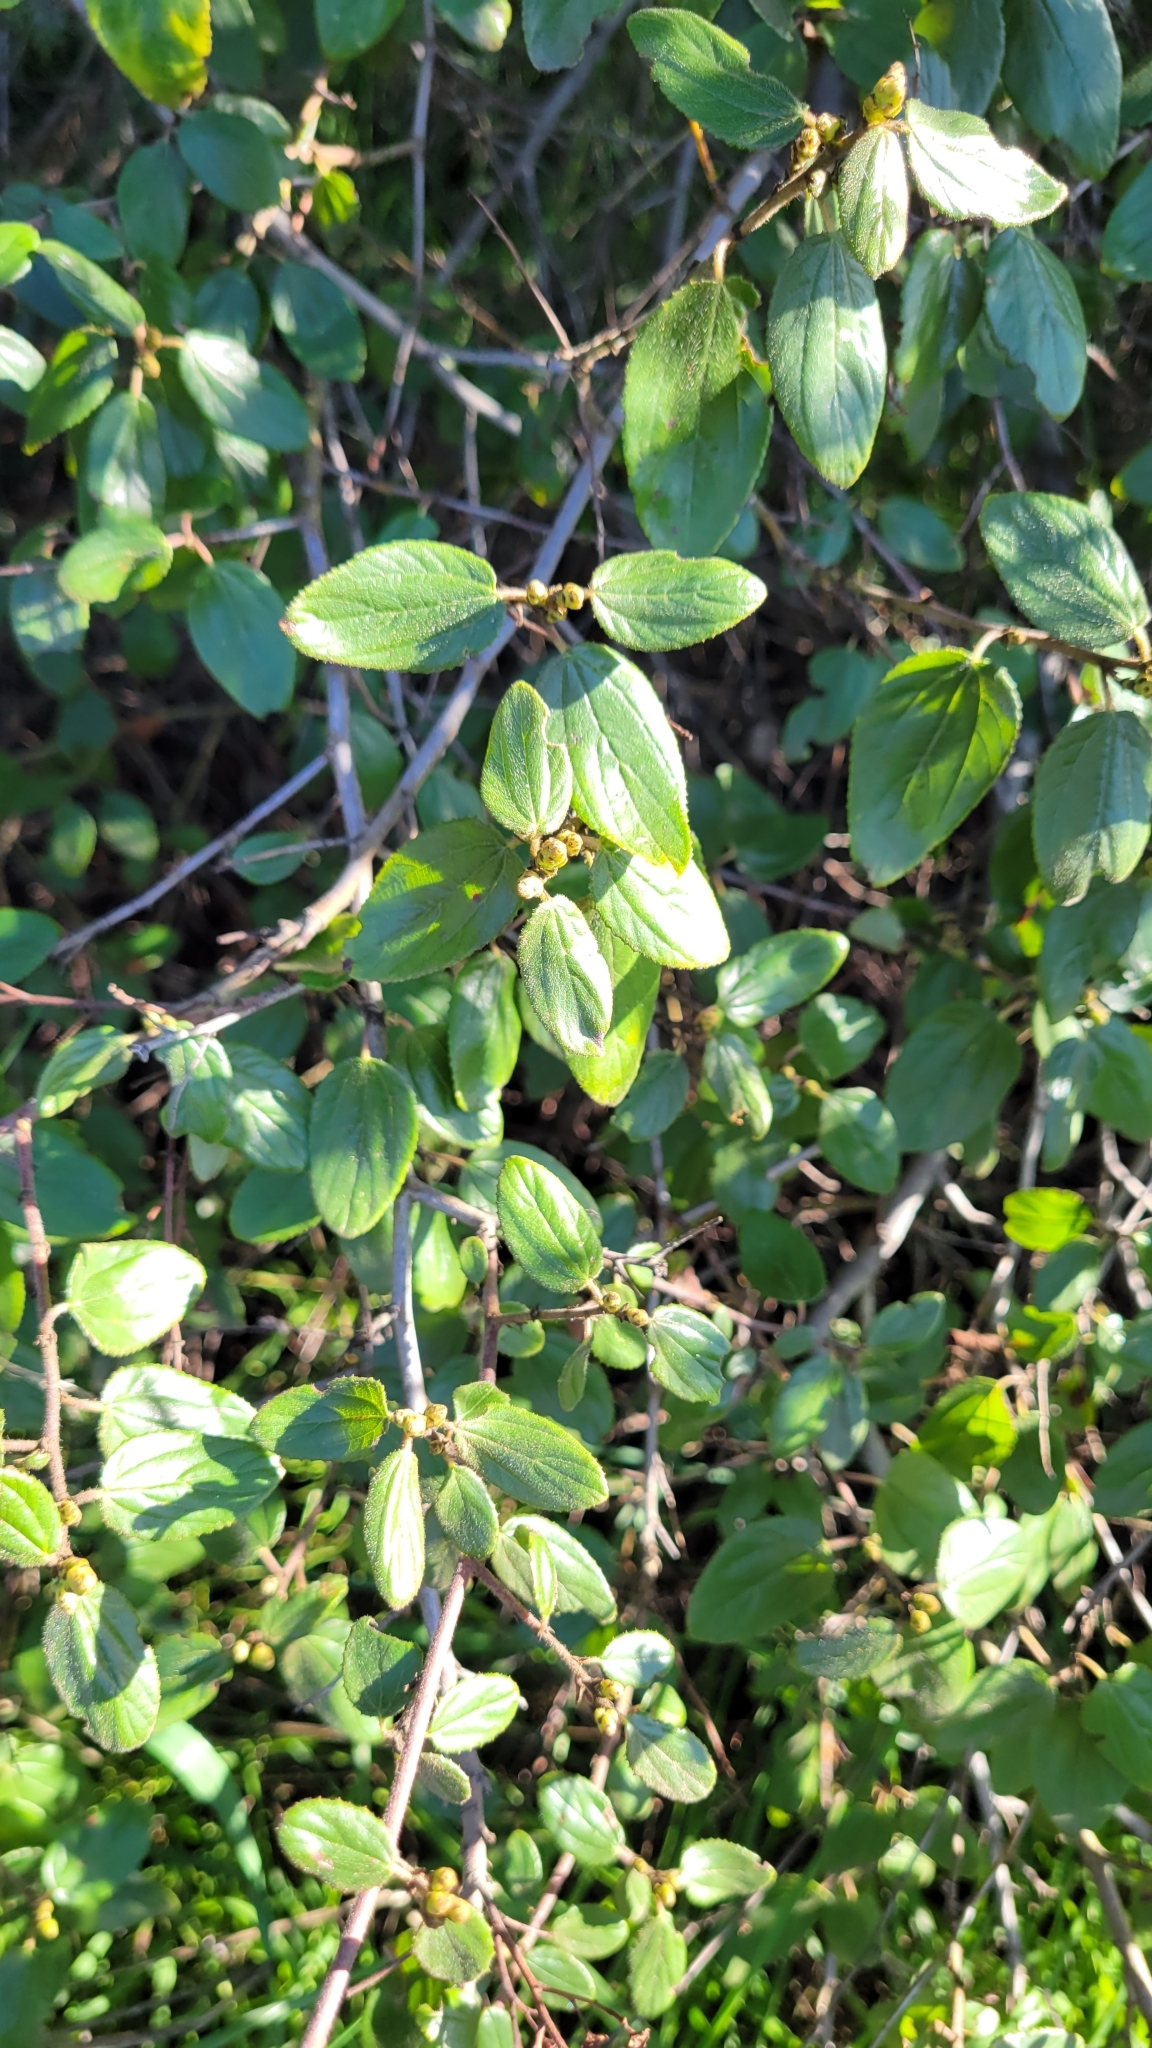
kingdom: Plantae
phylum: Tracheophyta
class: Magnoliopsida
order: Rosales
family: Rhamnaceae
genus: Ceanothus
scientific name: Ceanothus oliganthus
